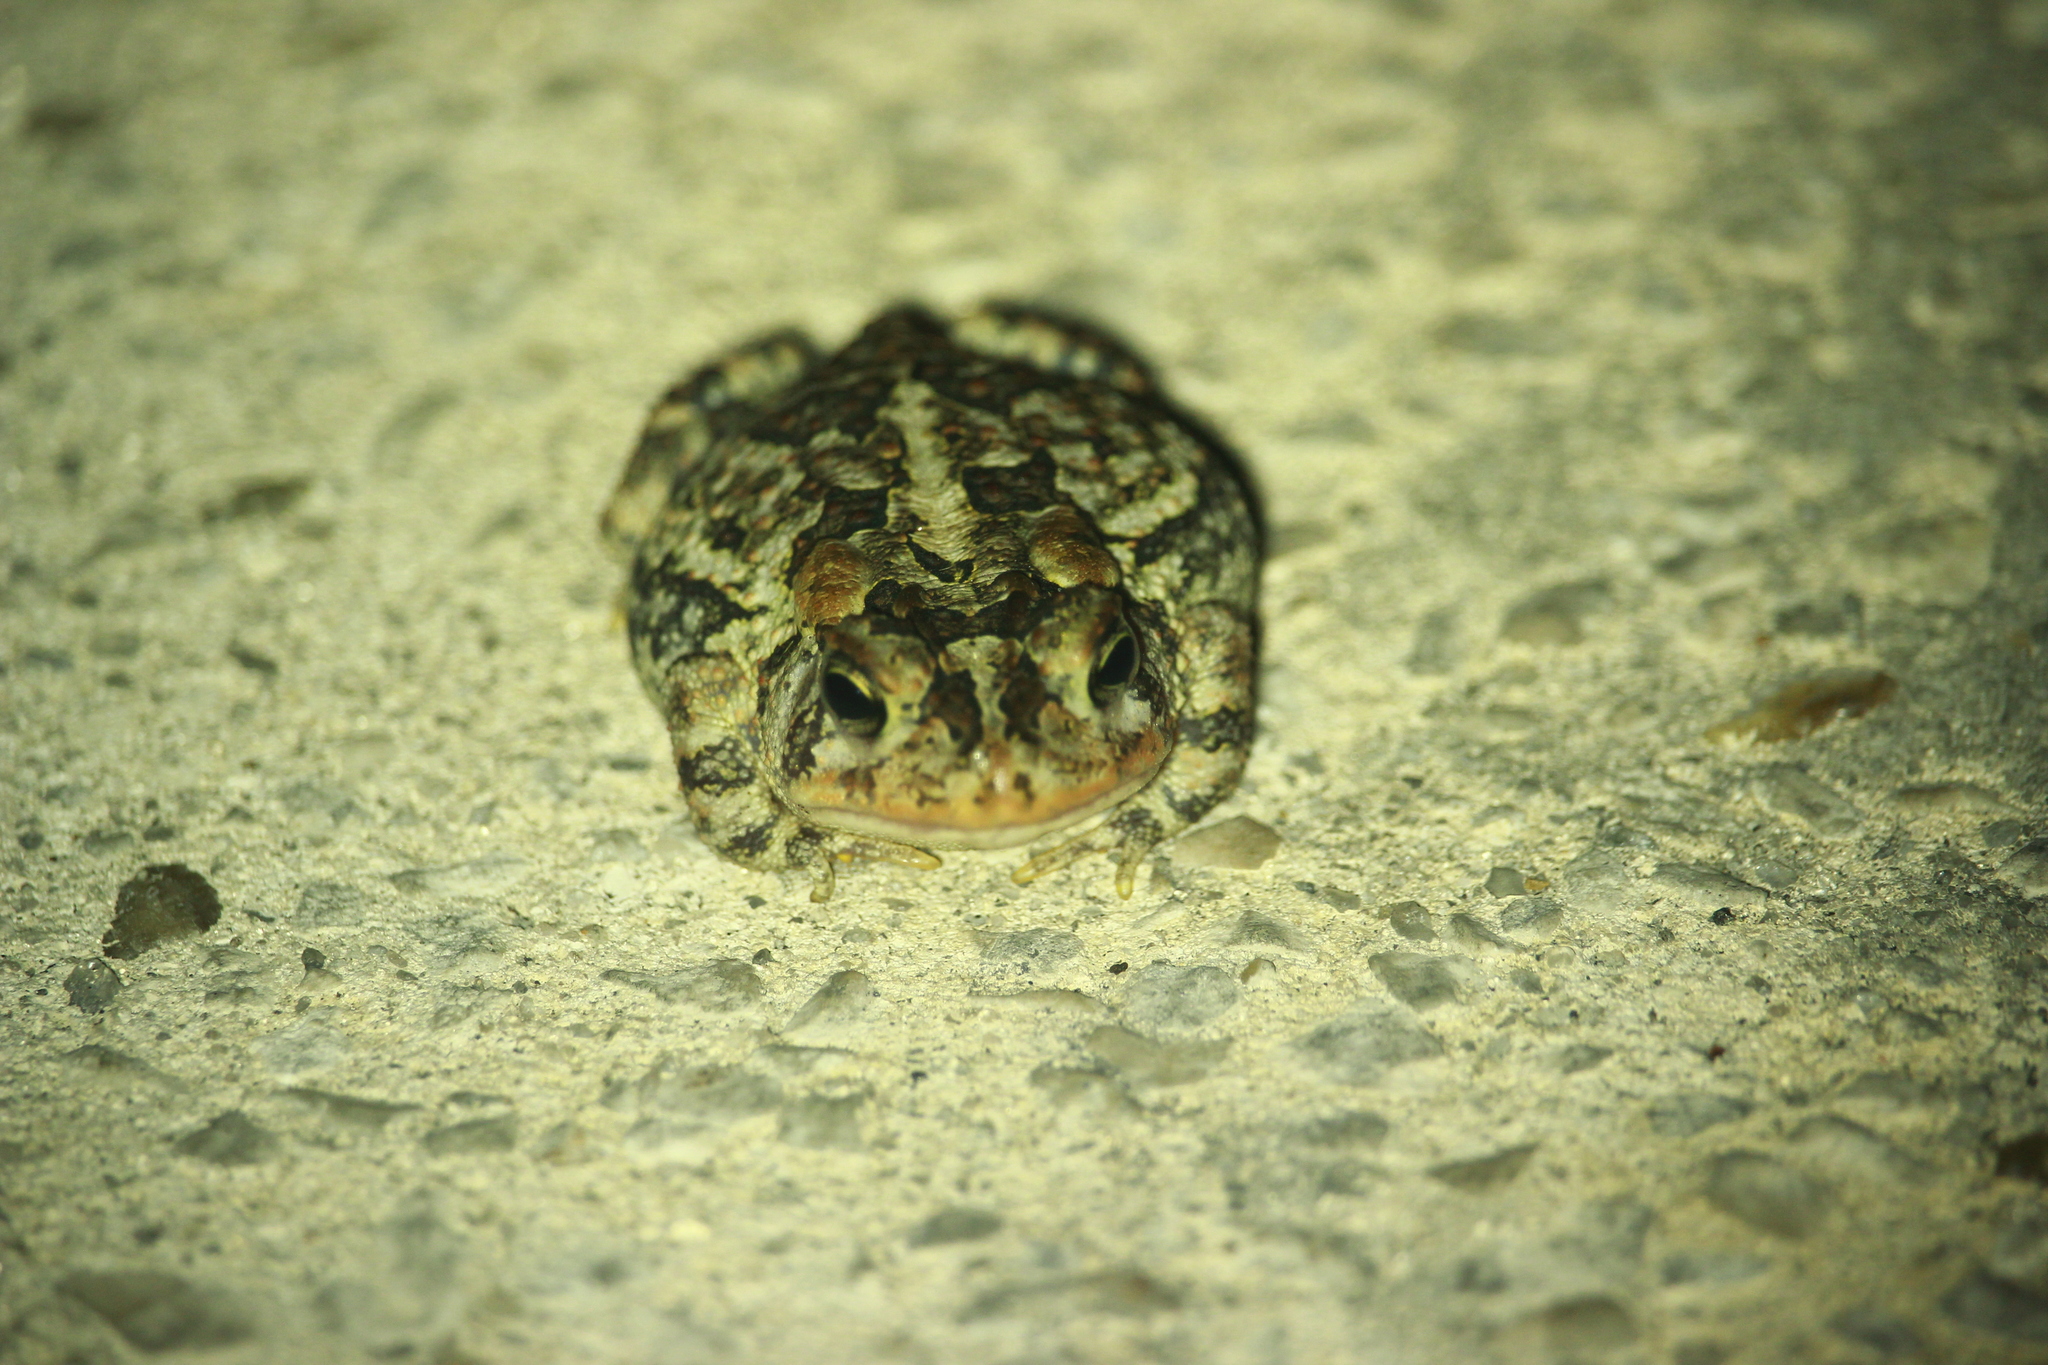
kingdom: Animalia
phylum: Chordata
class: Amphibia
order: Anura
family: Bufonidae
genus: Anaxyrus
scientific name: Anaxyrus terrestris
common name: Southern toad
